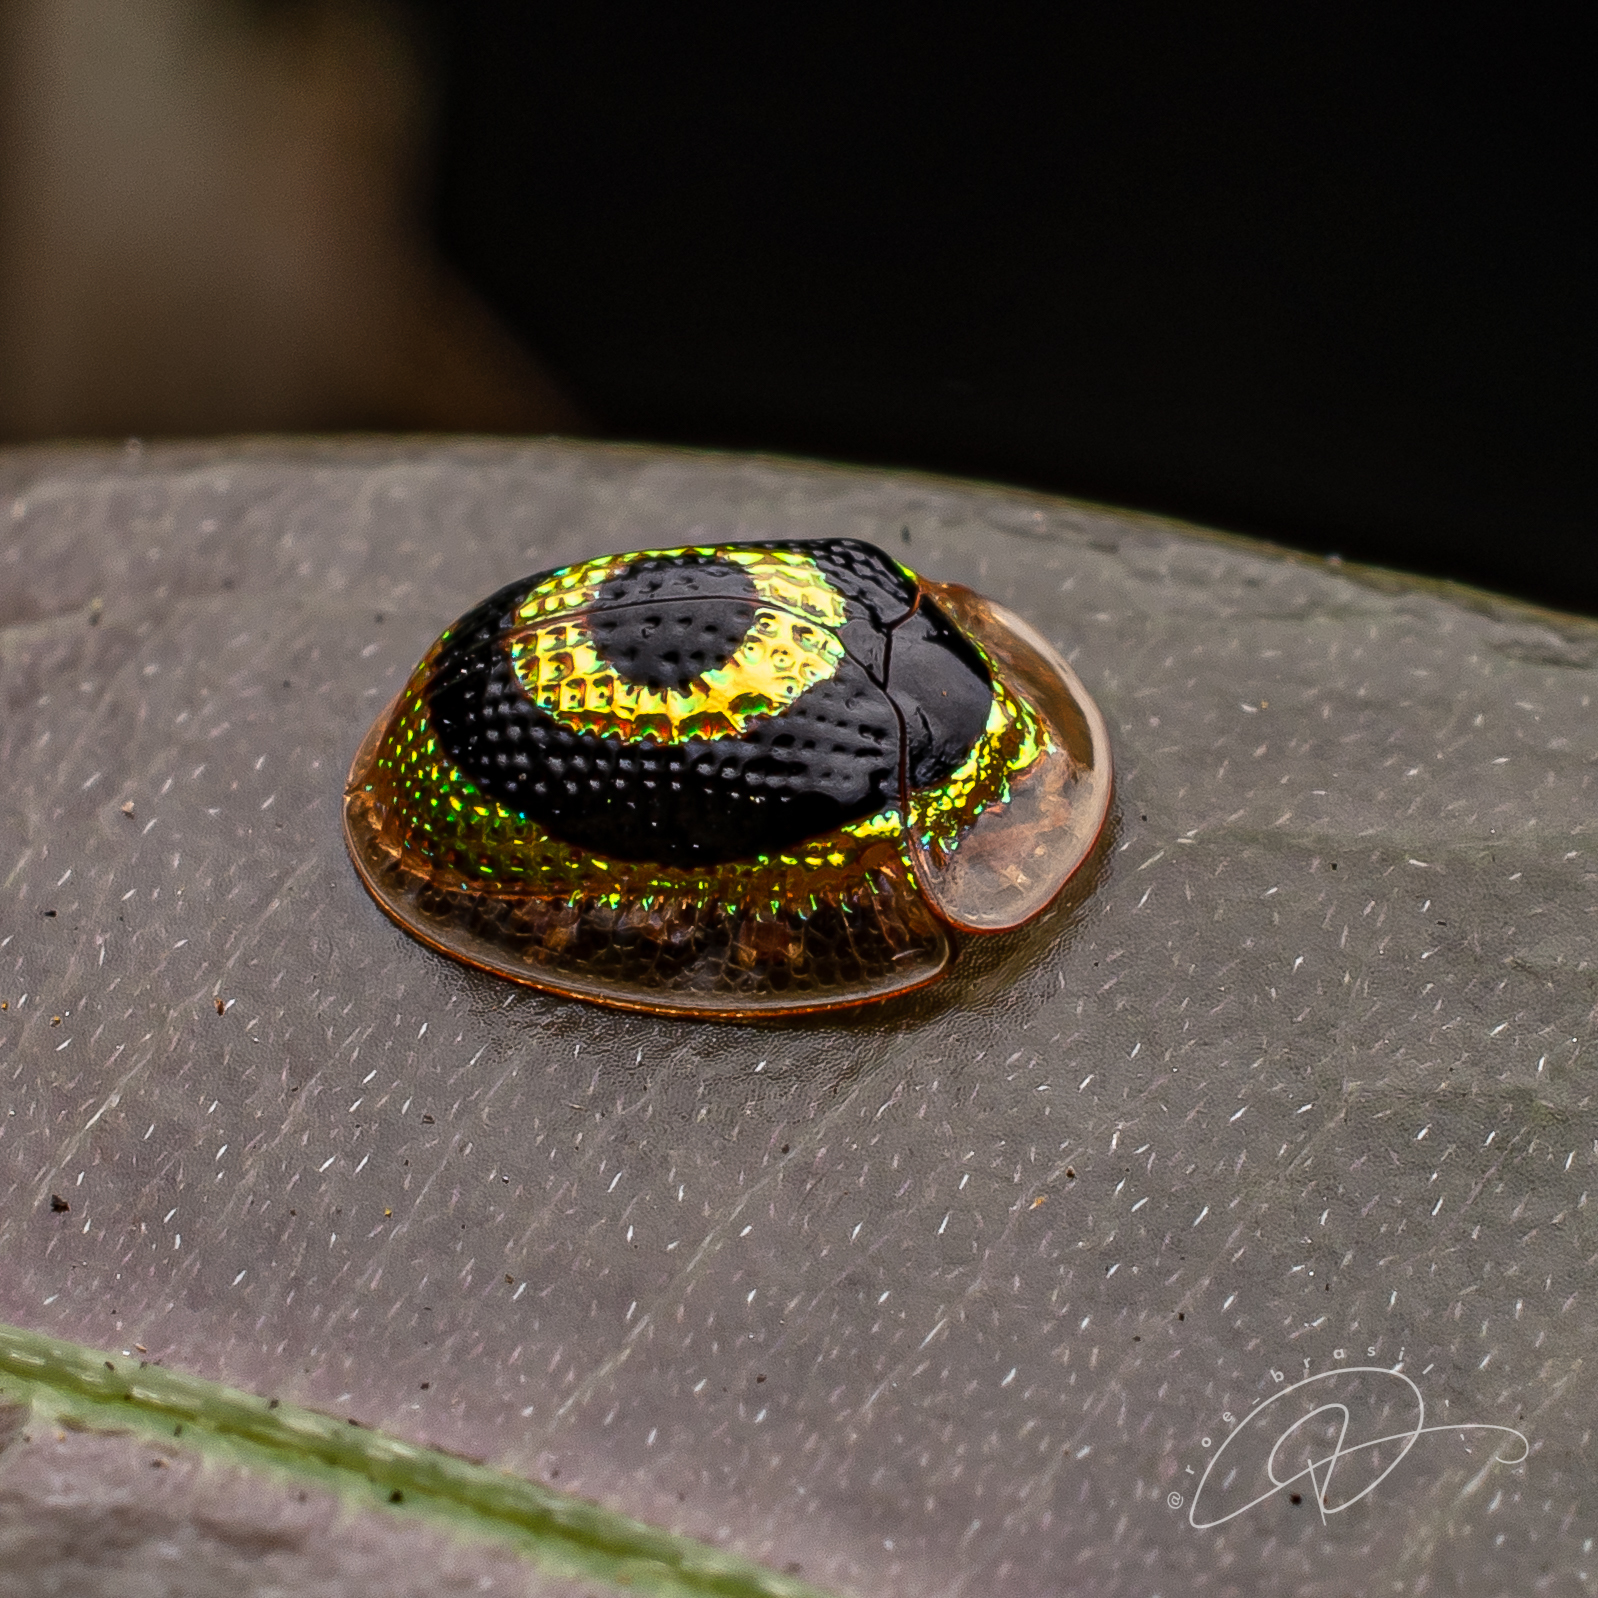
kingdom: Animalia
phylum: Arthropoda
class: Insecta
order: Coleoptera
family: Chrysomelidae
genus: Charidotis
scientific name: Charidotis concentrica
